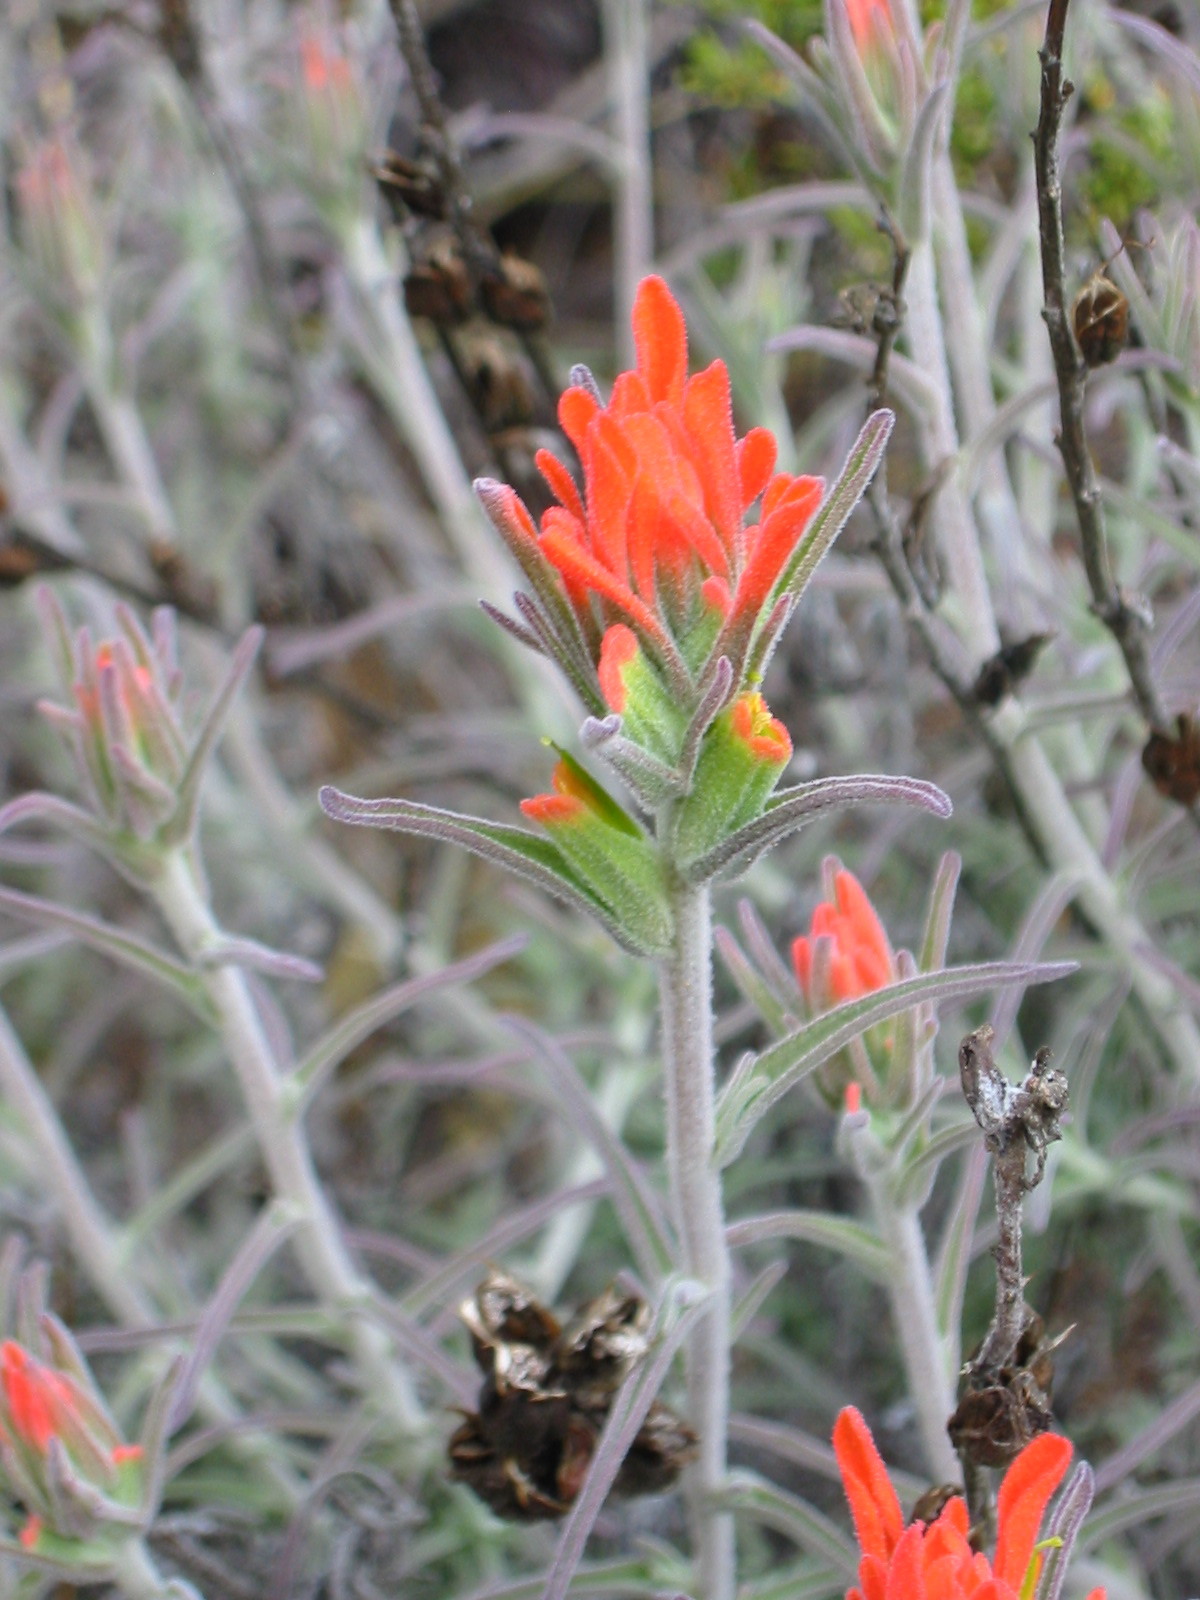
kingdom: Plantae
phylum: Tracheophyta
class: Magnoliopsida
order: Lamiales
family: Orobanchaceae
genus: Castilleja
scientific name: Castilleja foliolosa
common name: Woolly indian paintbrush
